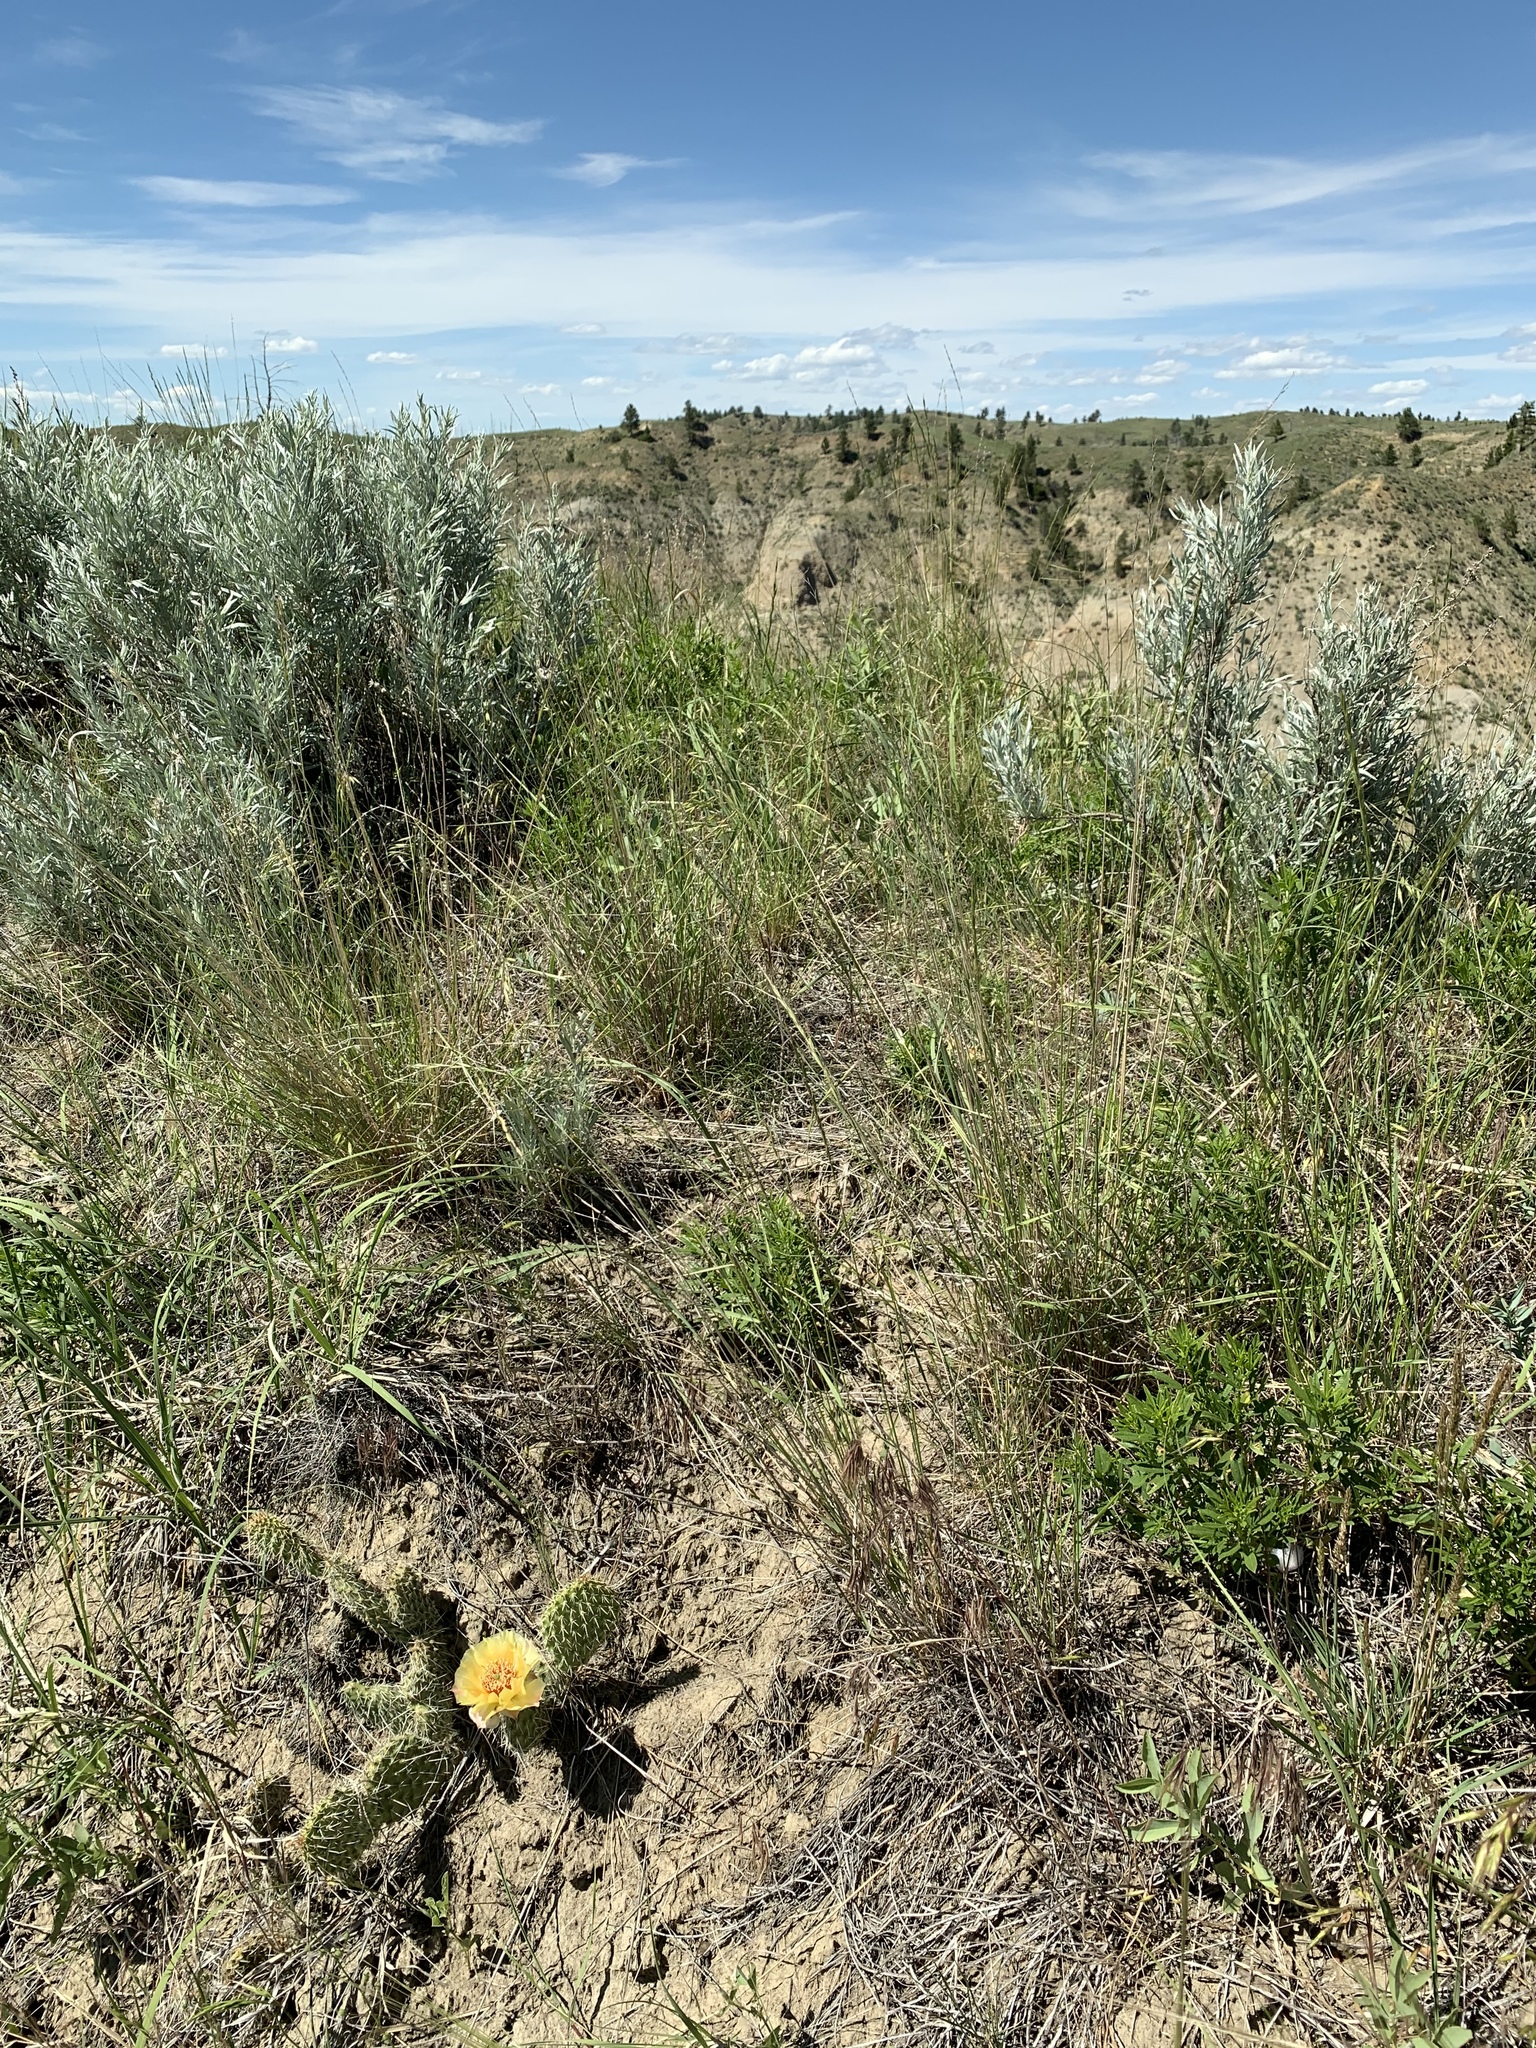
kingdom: Plantae
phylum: Tracheophyta
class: Magnoliopsida
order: Caryophyllales
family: Cactaceae
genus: Opuntia
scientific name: Opuntia polyacantha
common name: Plains prickly-pear
